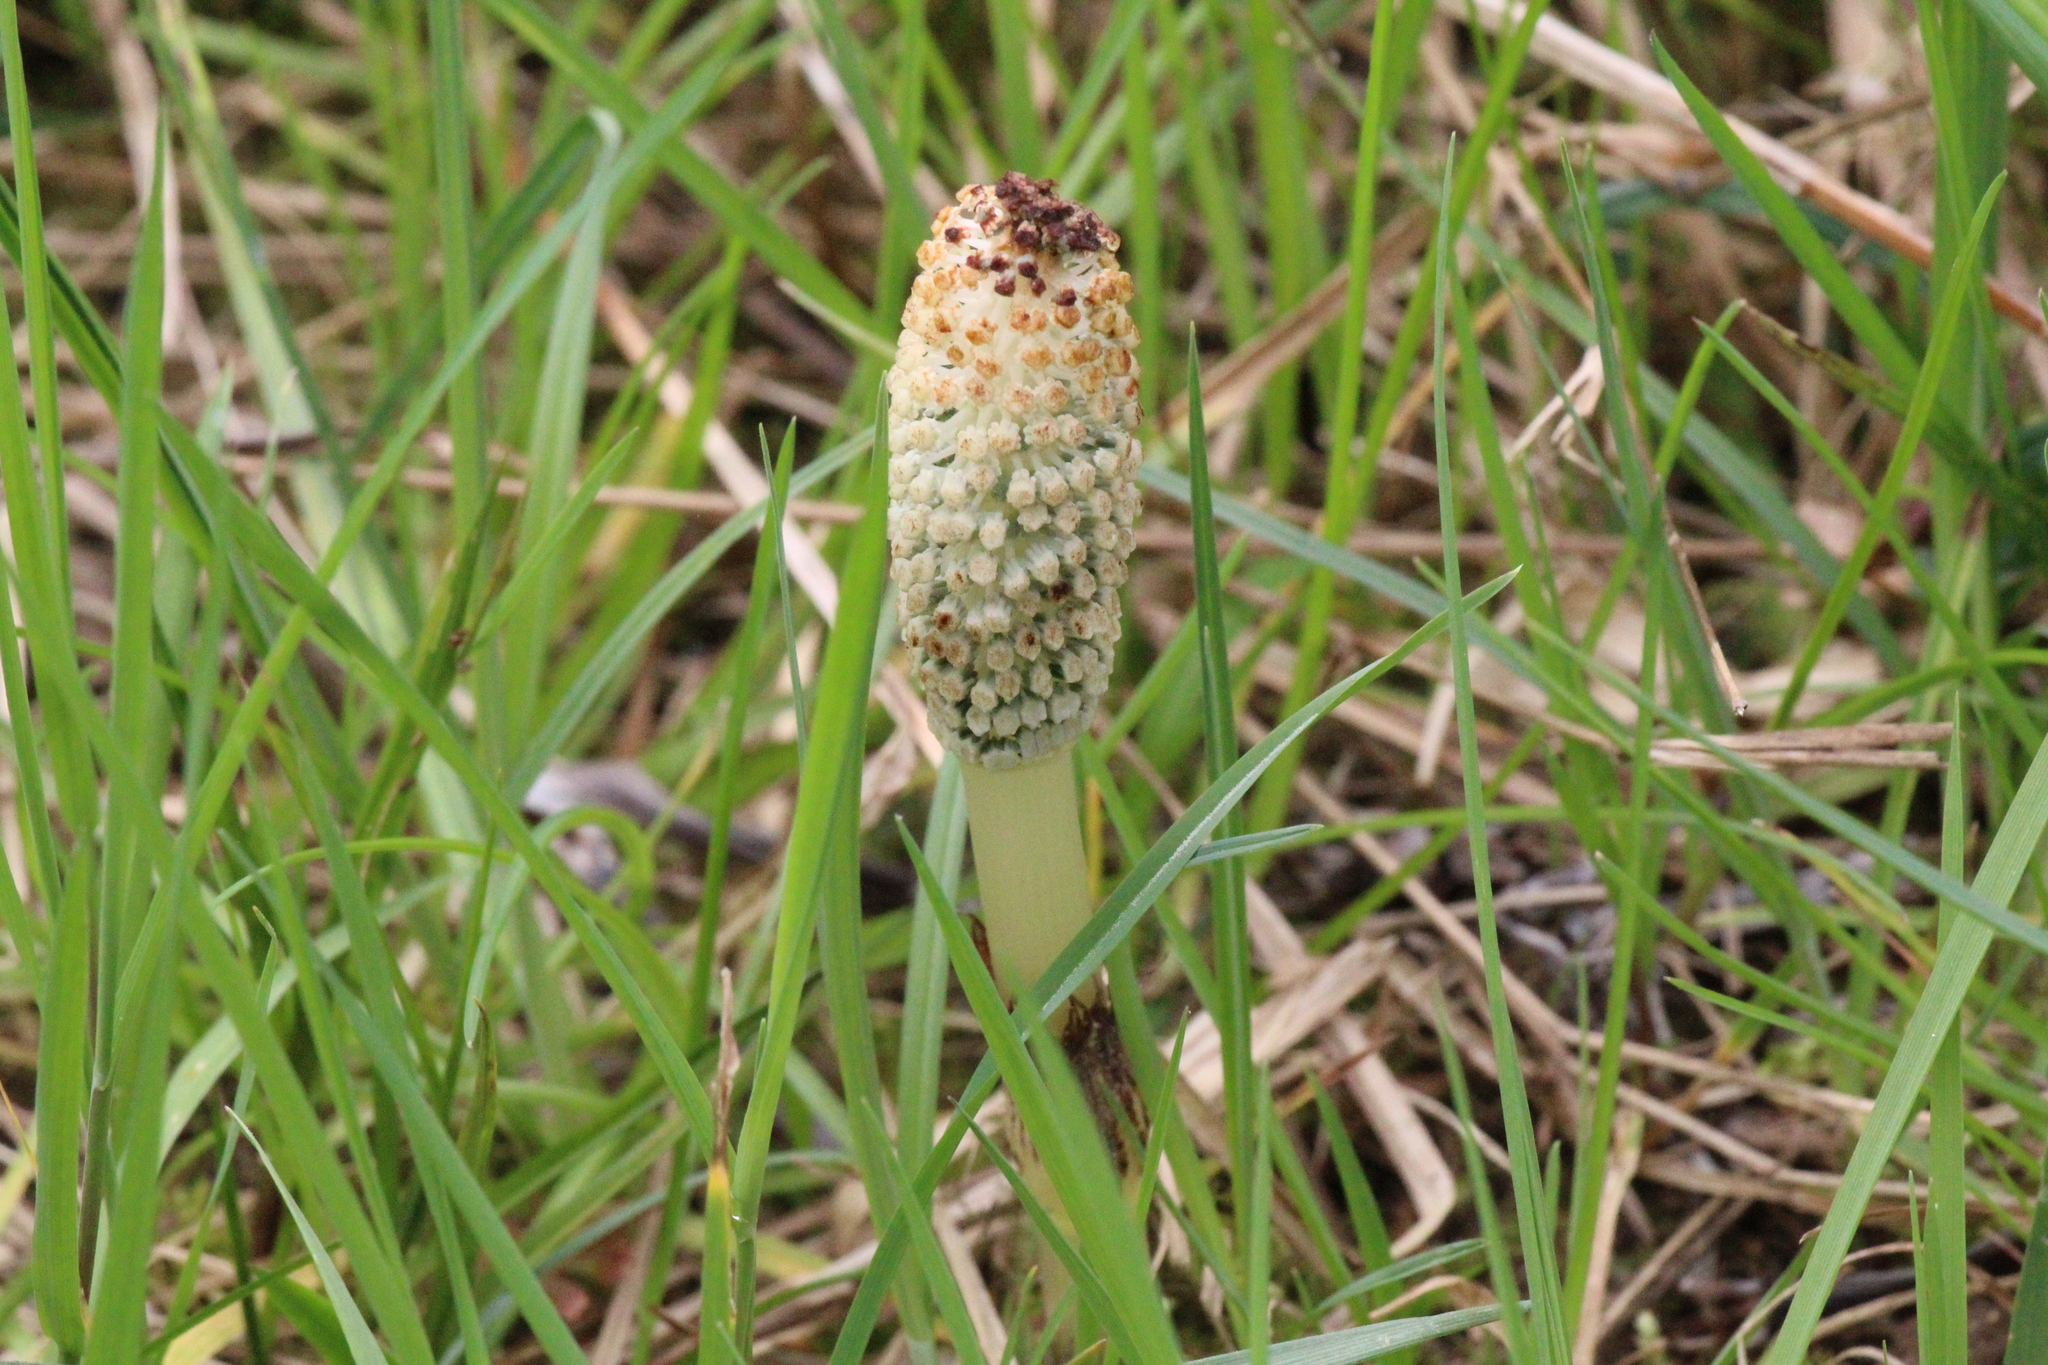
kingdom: Plantae
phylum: Tracheophyta
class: Polypodiopsida
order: Equisetales
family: Equisetaceae
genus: Equisetum
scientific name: Equisetum telmateia
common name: Great horsetail
